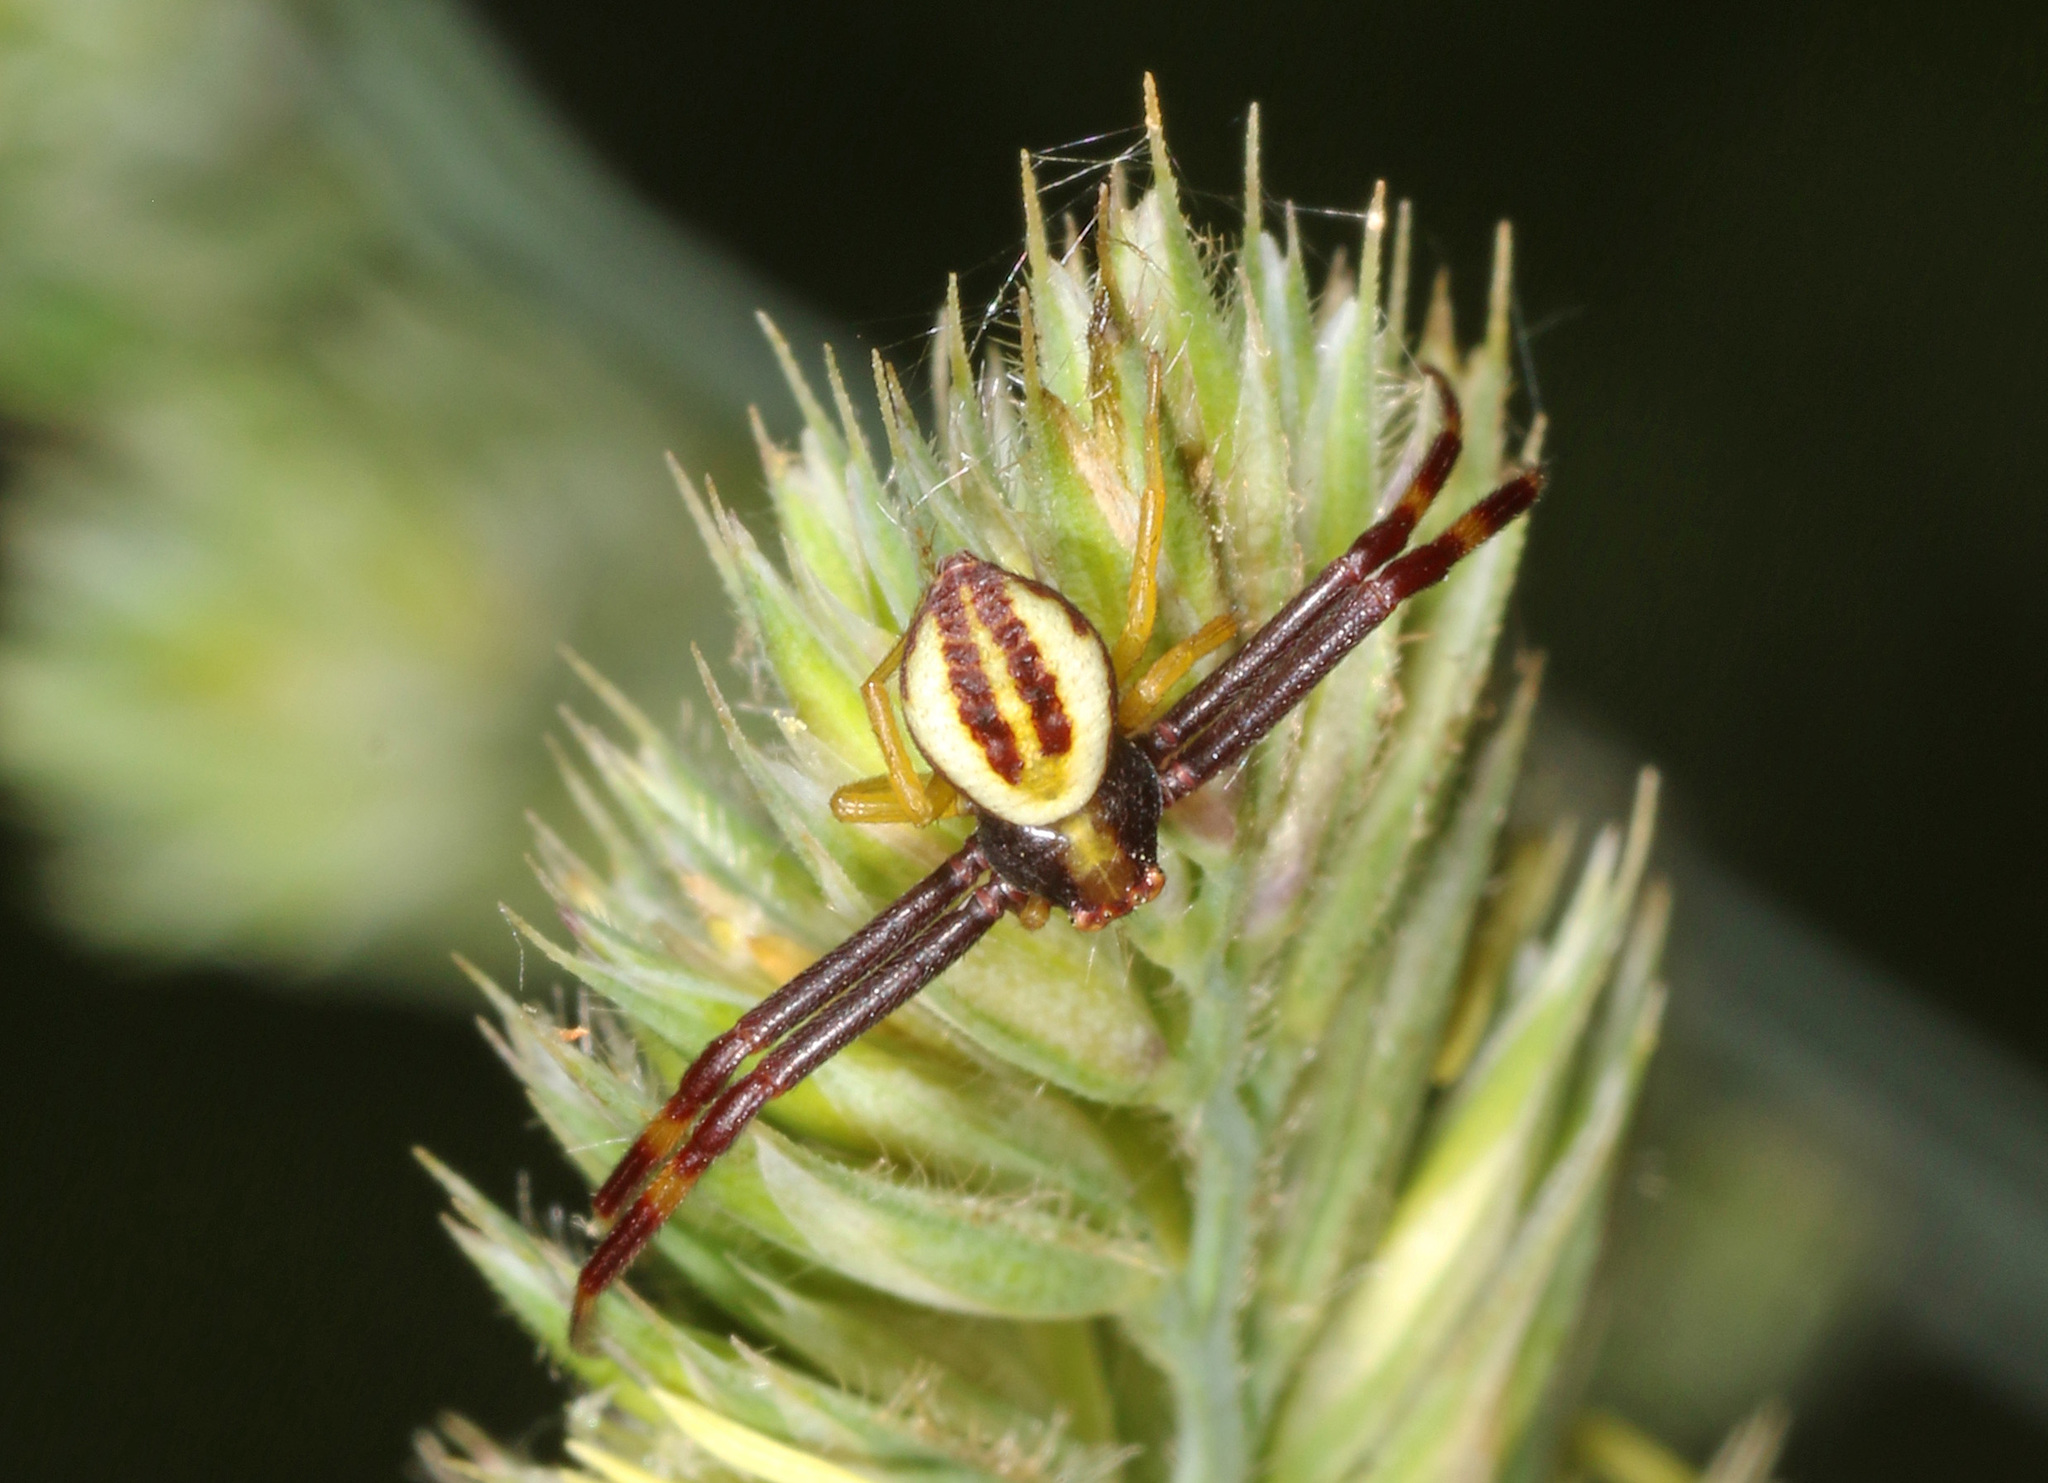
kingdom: Animalia
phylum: Arthropoda
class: Arachnida
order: Araneae
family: Thomisidae
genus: Misumena
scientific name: Misumena vatia
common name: Goldenrod crab spider
